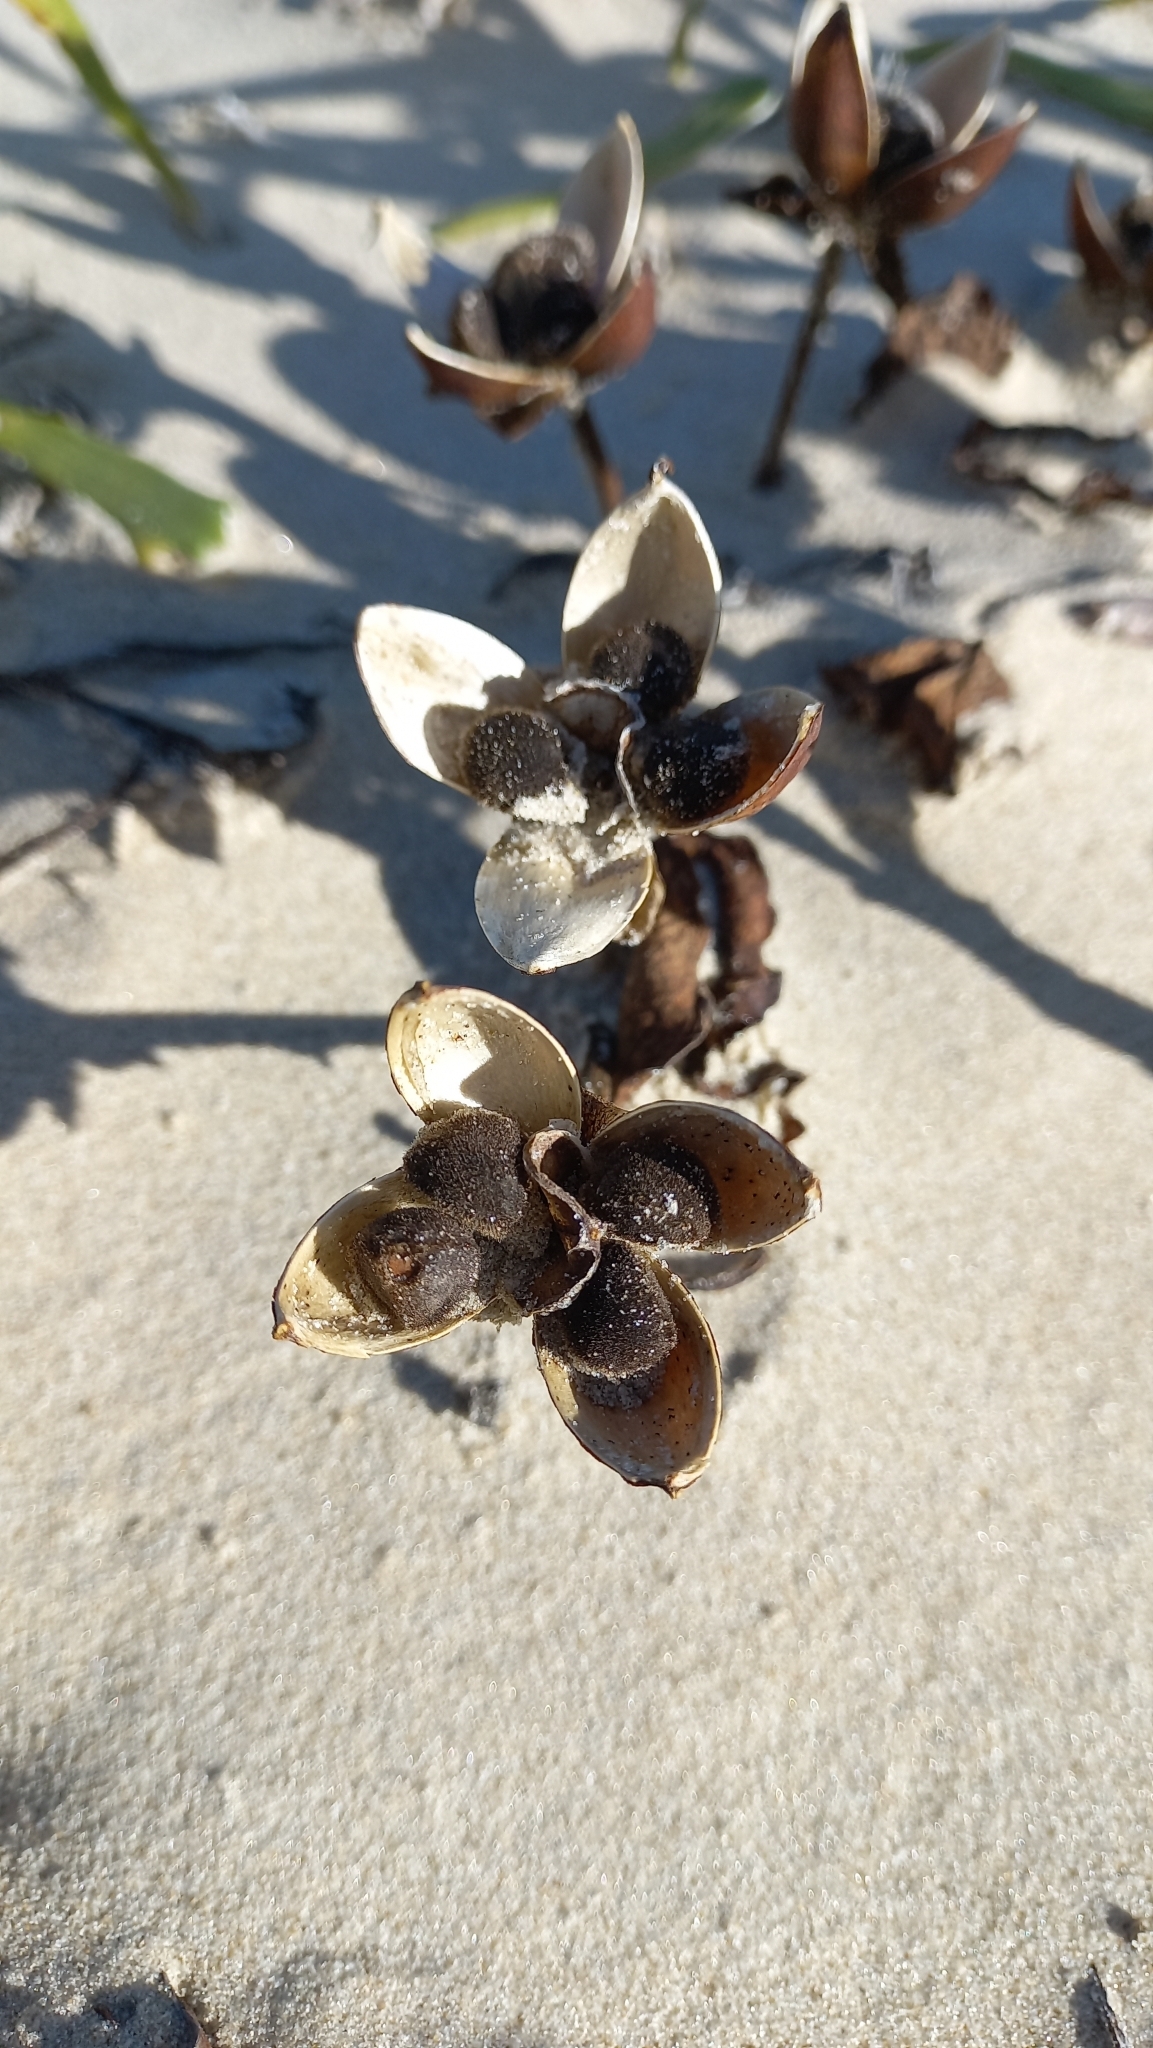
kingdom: Plantae
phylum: Tracheophyta
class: Magnoliopsida
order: Solanales
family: Convolvulaceae
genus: Ipomoea
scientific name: Ipomoea pes-caprae
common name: Beach morning glory
